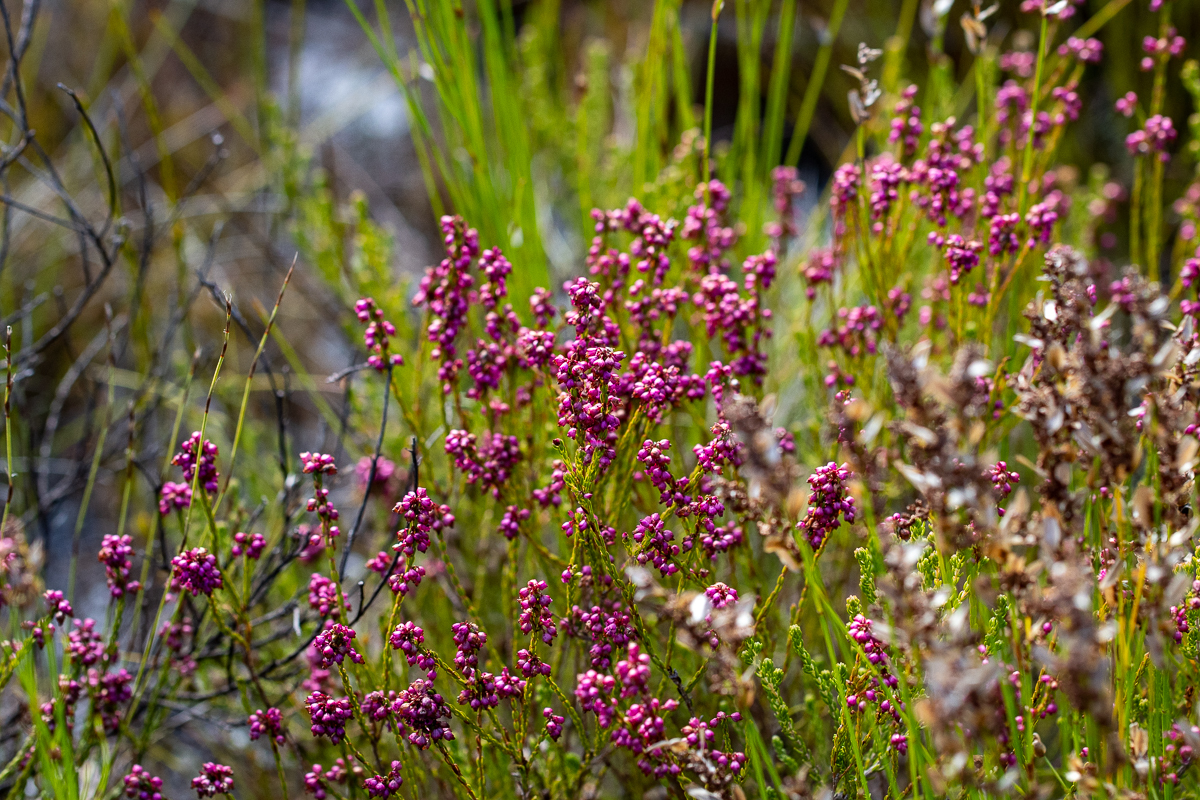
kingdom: Plantae
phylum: Tracheophyta
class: Magnoliopsida
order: Ericales
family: Ericaceae
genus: Erica
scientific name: Erica rhopalantha
